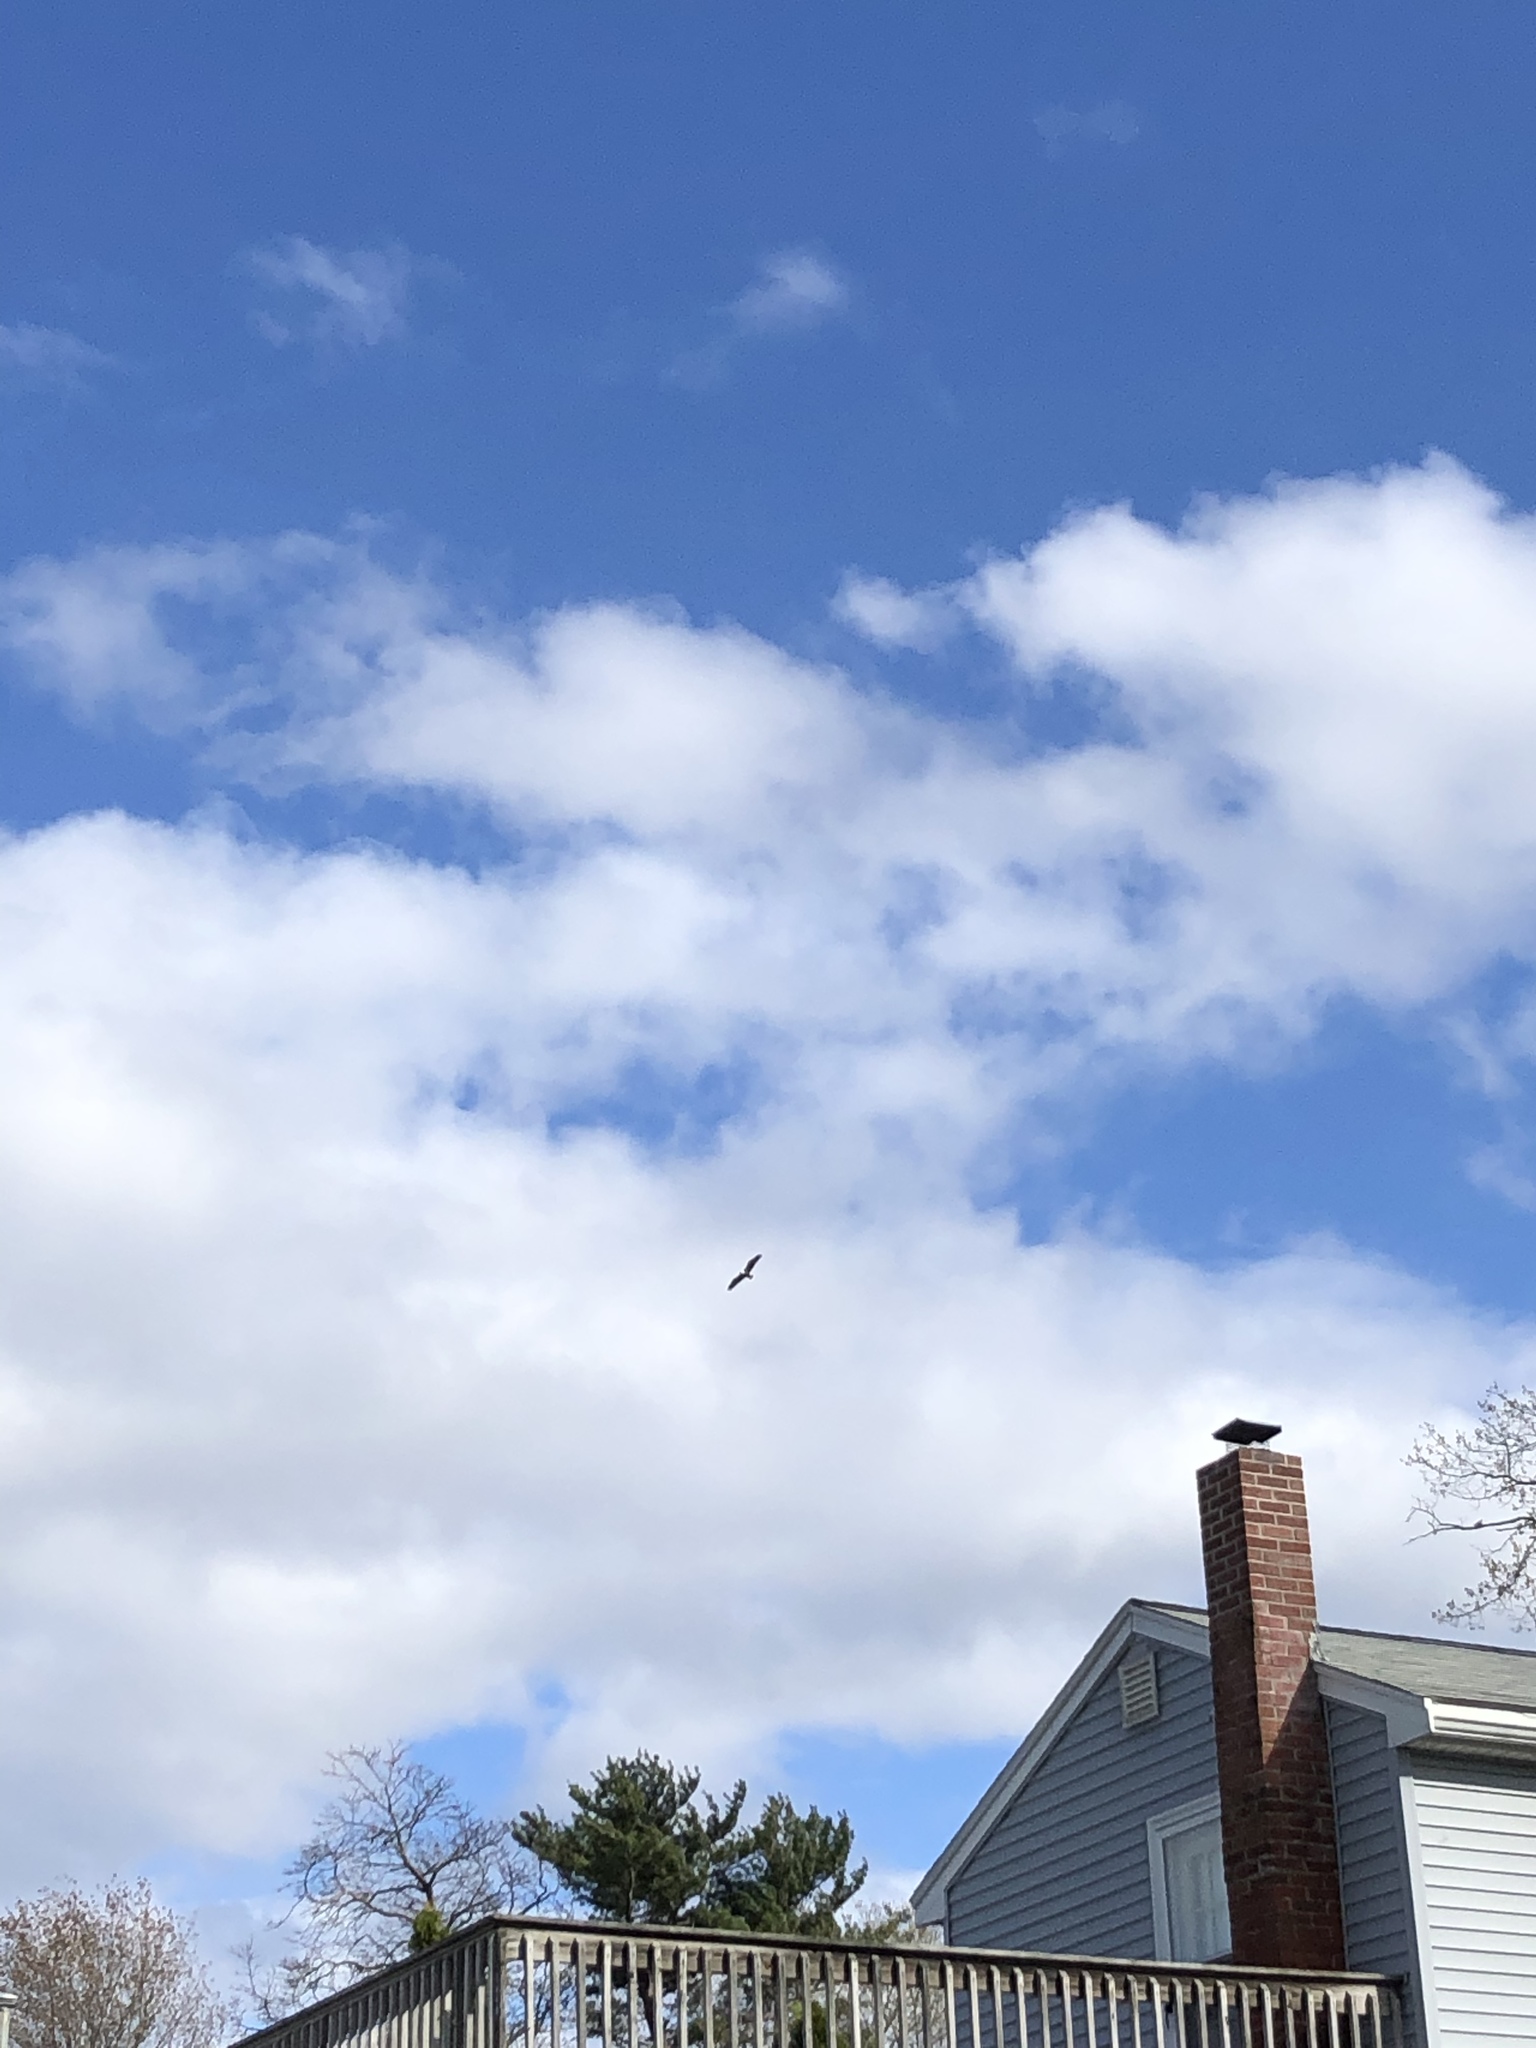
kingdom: Animalia
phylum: Chordata
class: Aves
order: Accipitriformes
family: Accipitridae
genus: Haliaeetus
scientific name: Haliaeetus leucocephalus
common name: Bald eagle
